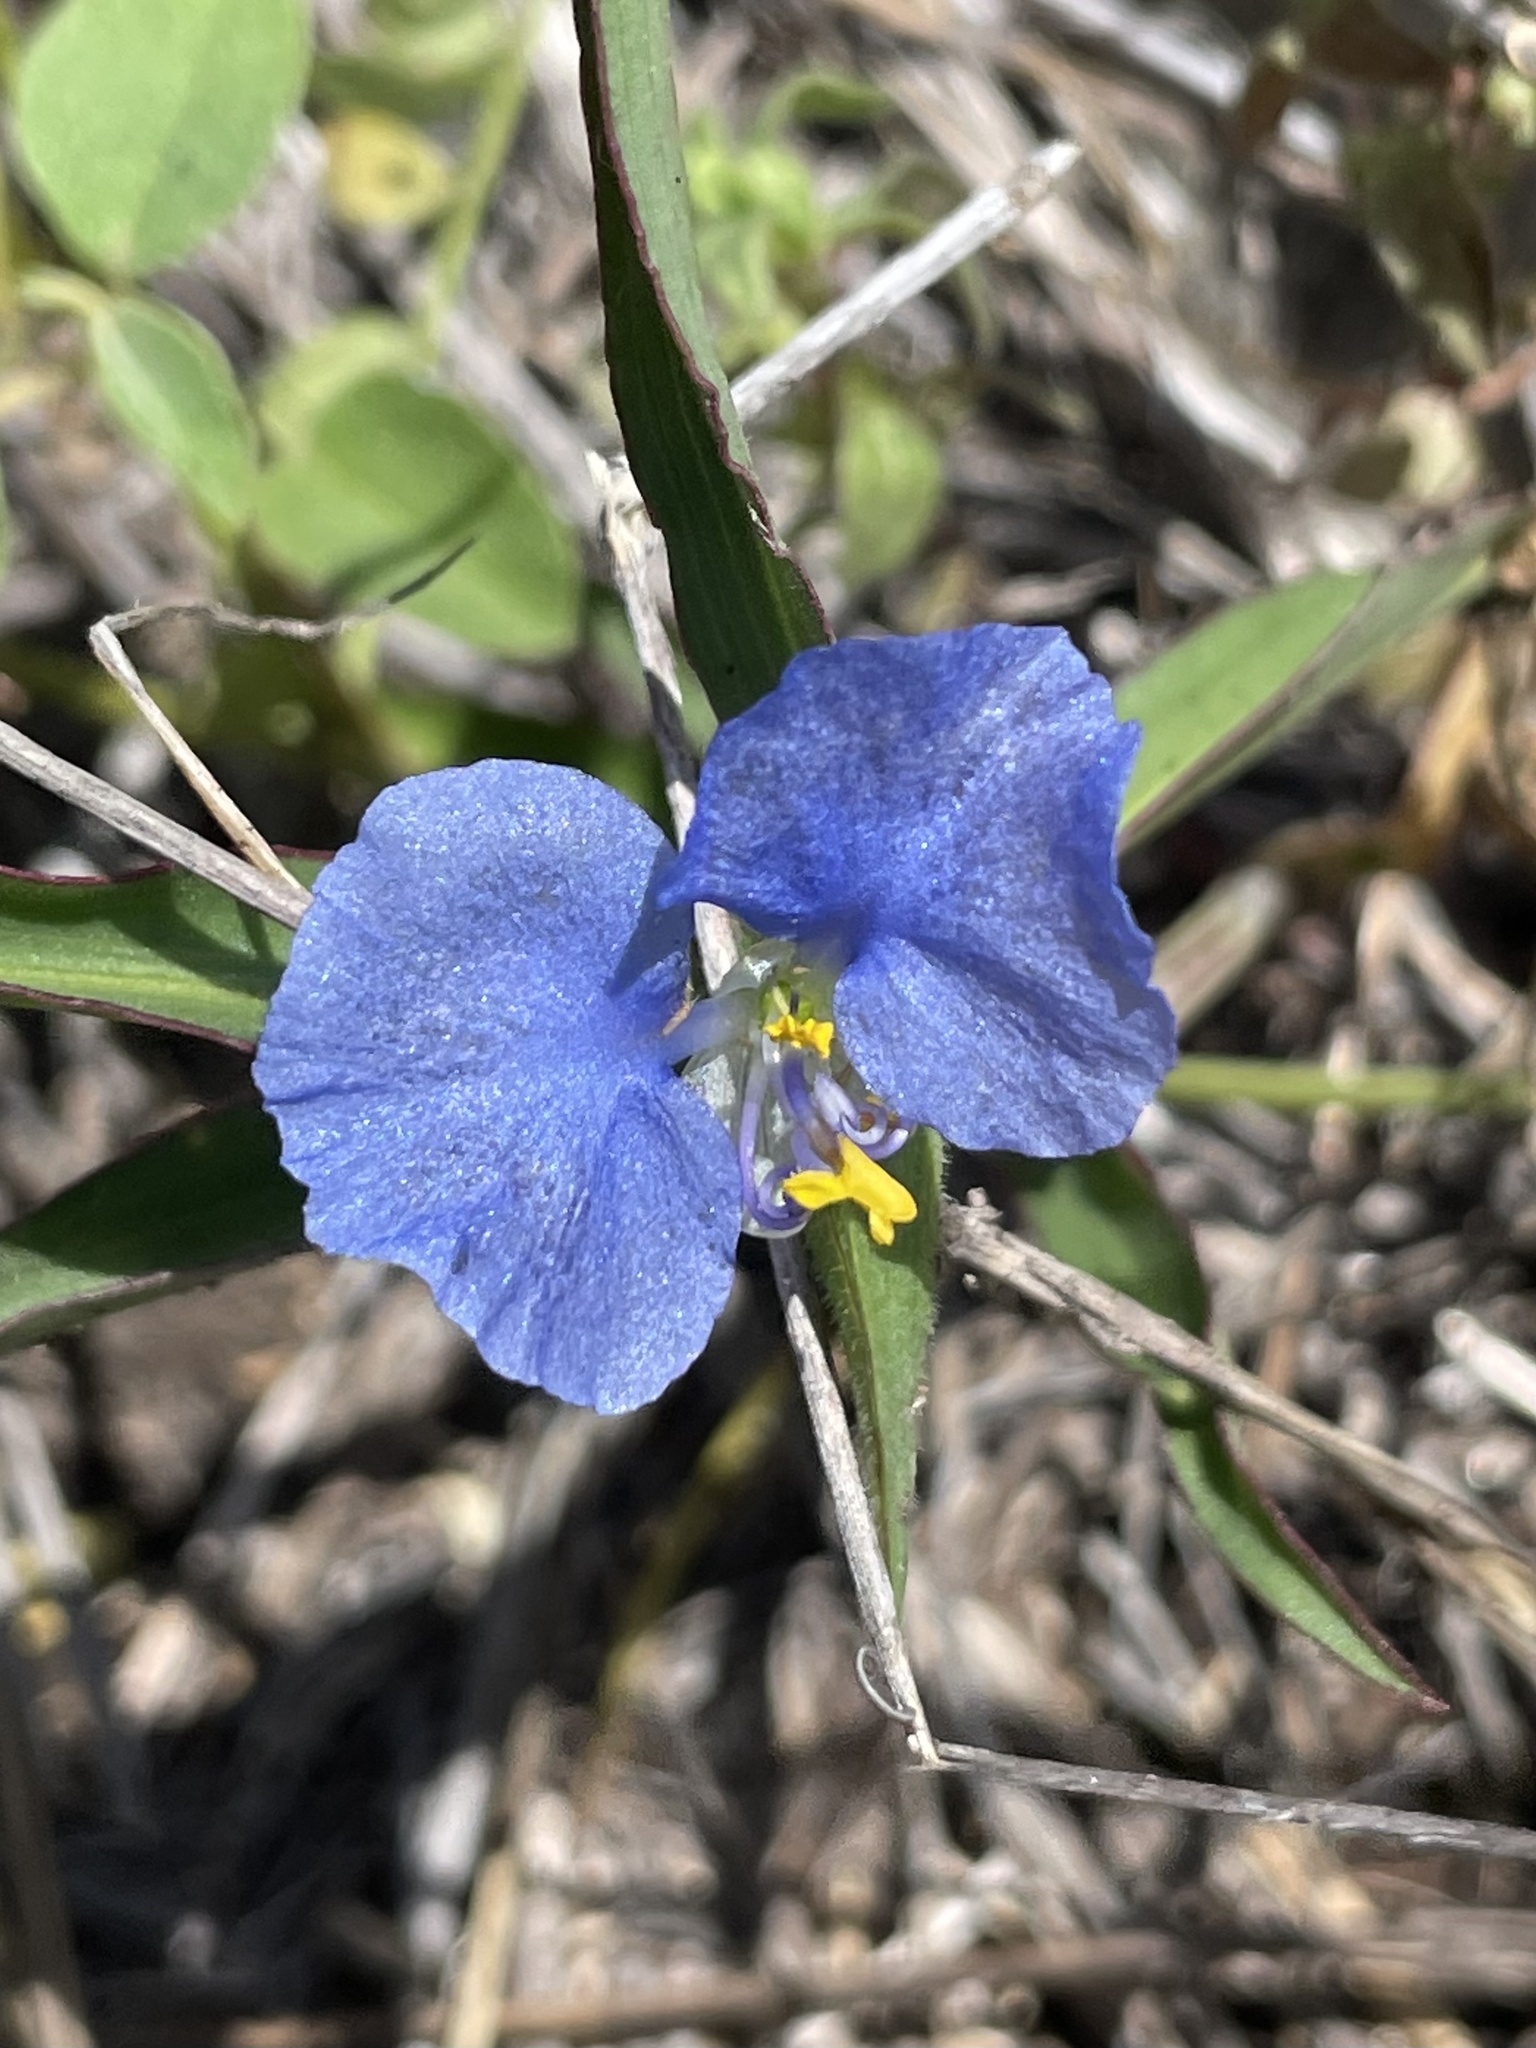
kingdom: Plantae
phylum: Tracheophyta
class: Liliopsida
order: Commelinales
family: Commelinaceae
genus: Commelina
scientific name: Commelina erecta
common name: Blousel blommetjie
